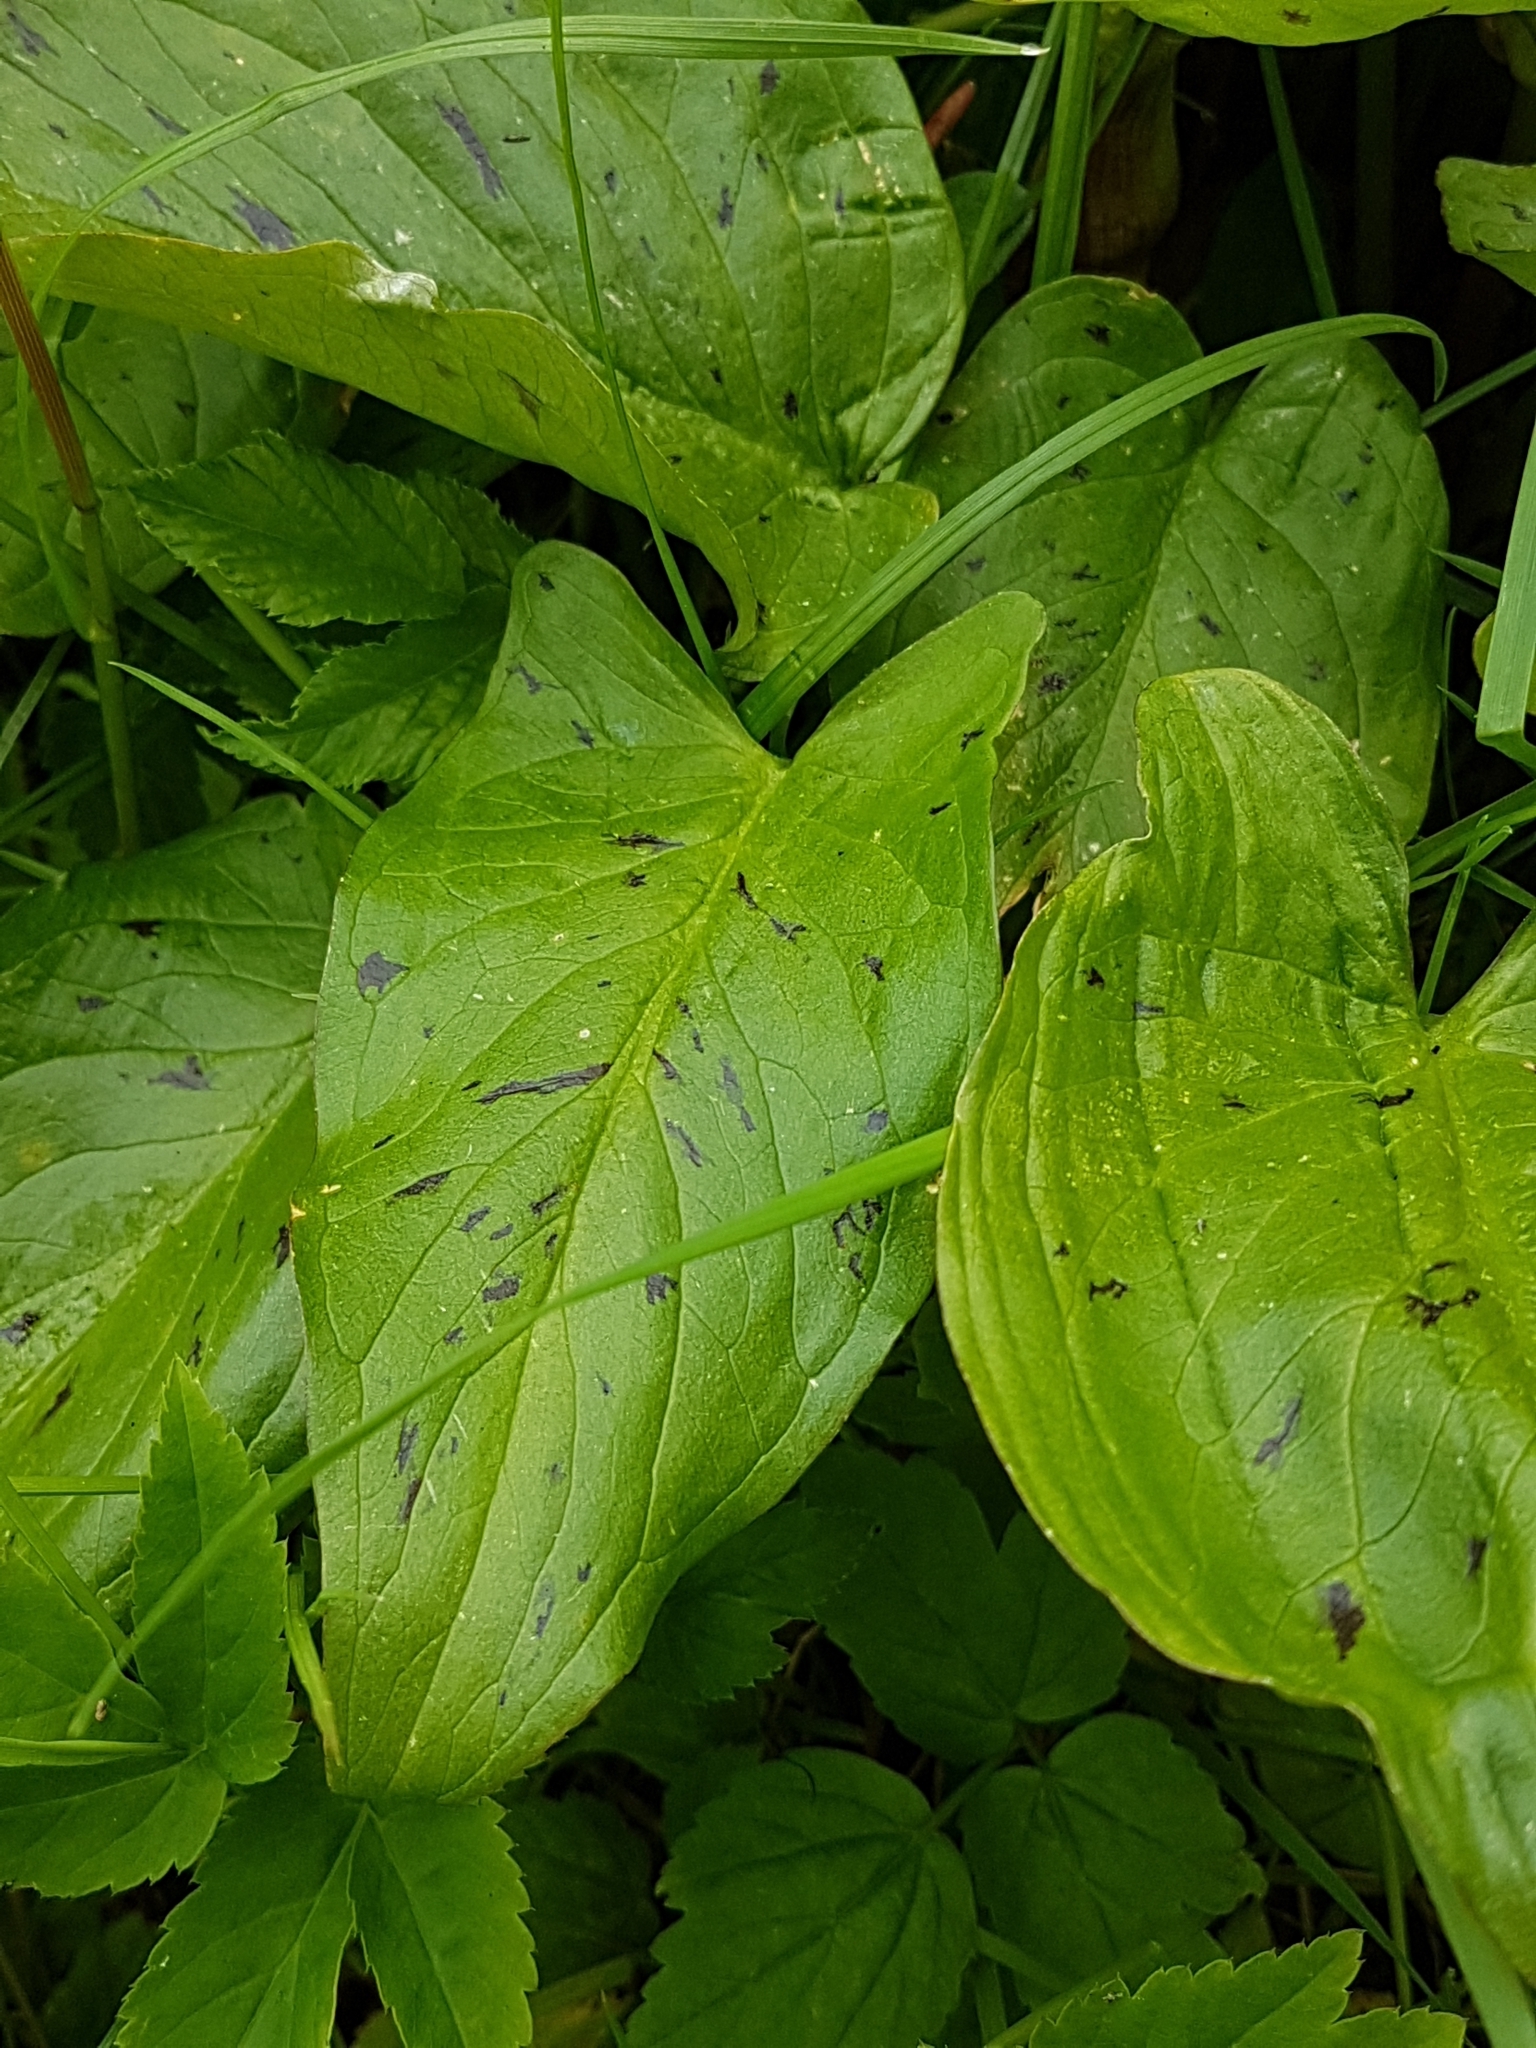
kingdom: Plantae
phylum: Tracheophyta
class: Liliopsida
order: Alismatales
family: Araceae
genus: Arum
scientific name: Arum maculatum
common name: Lords-and-ladies
